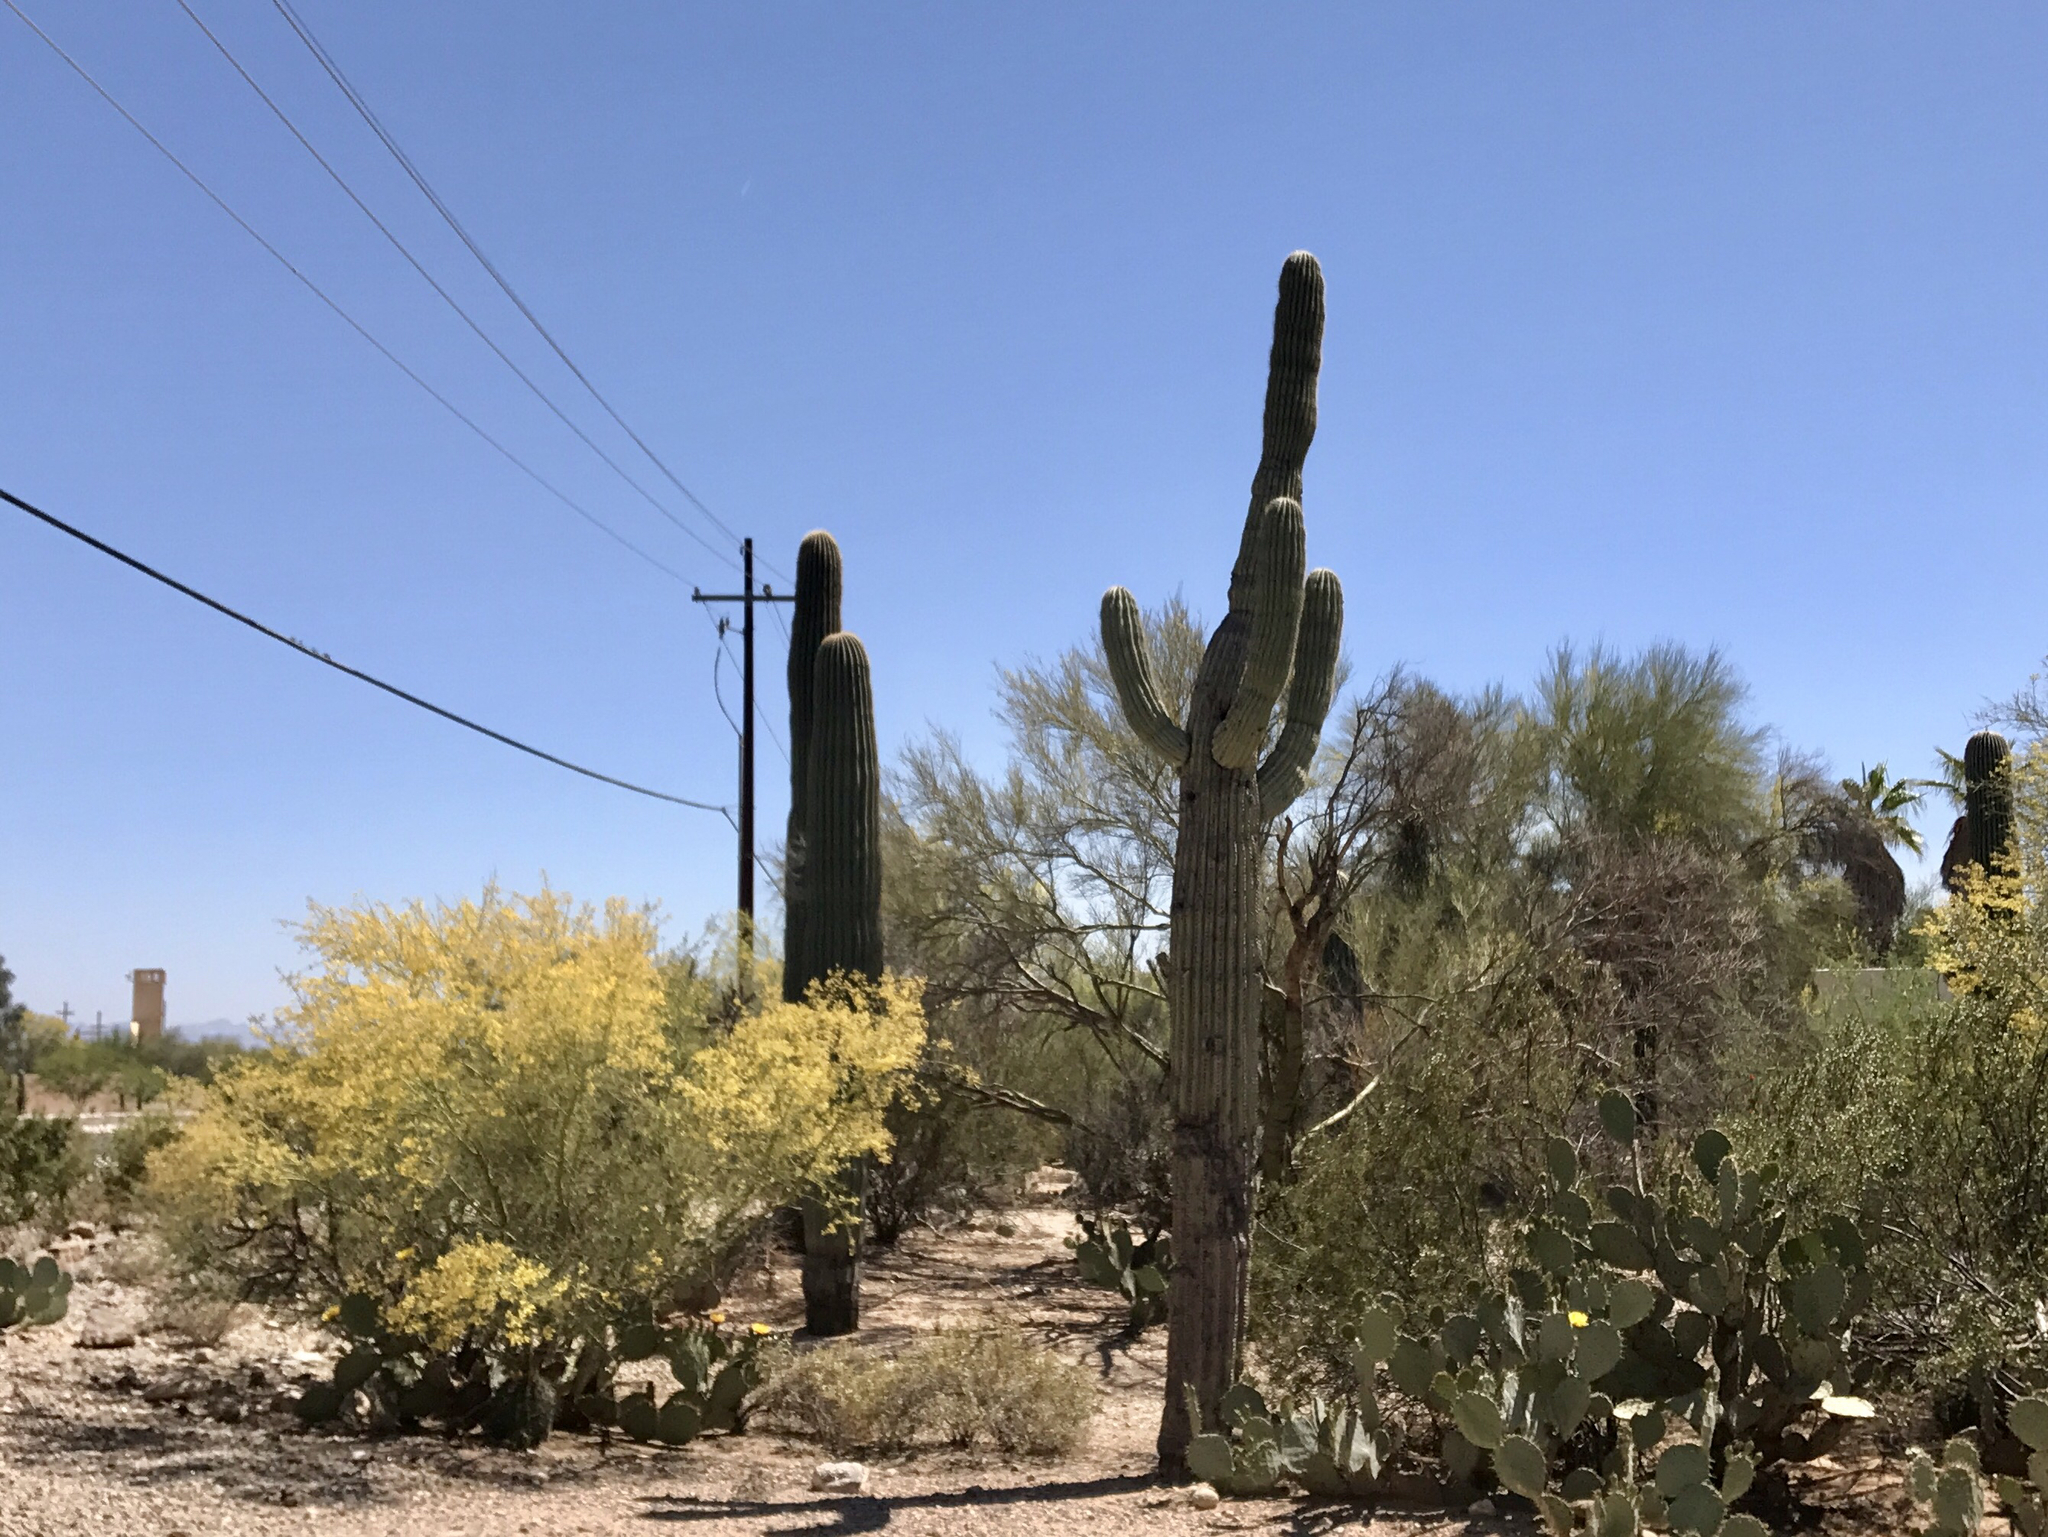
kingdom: Plantae
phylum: Tracheophyta
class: Magnoliopsida
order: Caryophyllales
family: Cactaceae
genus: Carnegiea
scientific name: Carnegiea gigantea
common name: Saguaro
